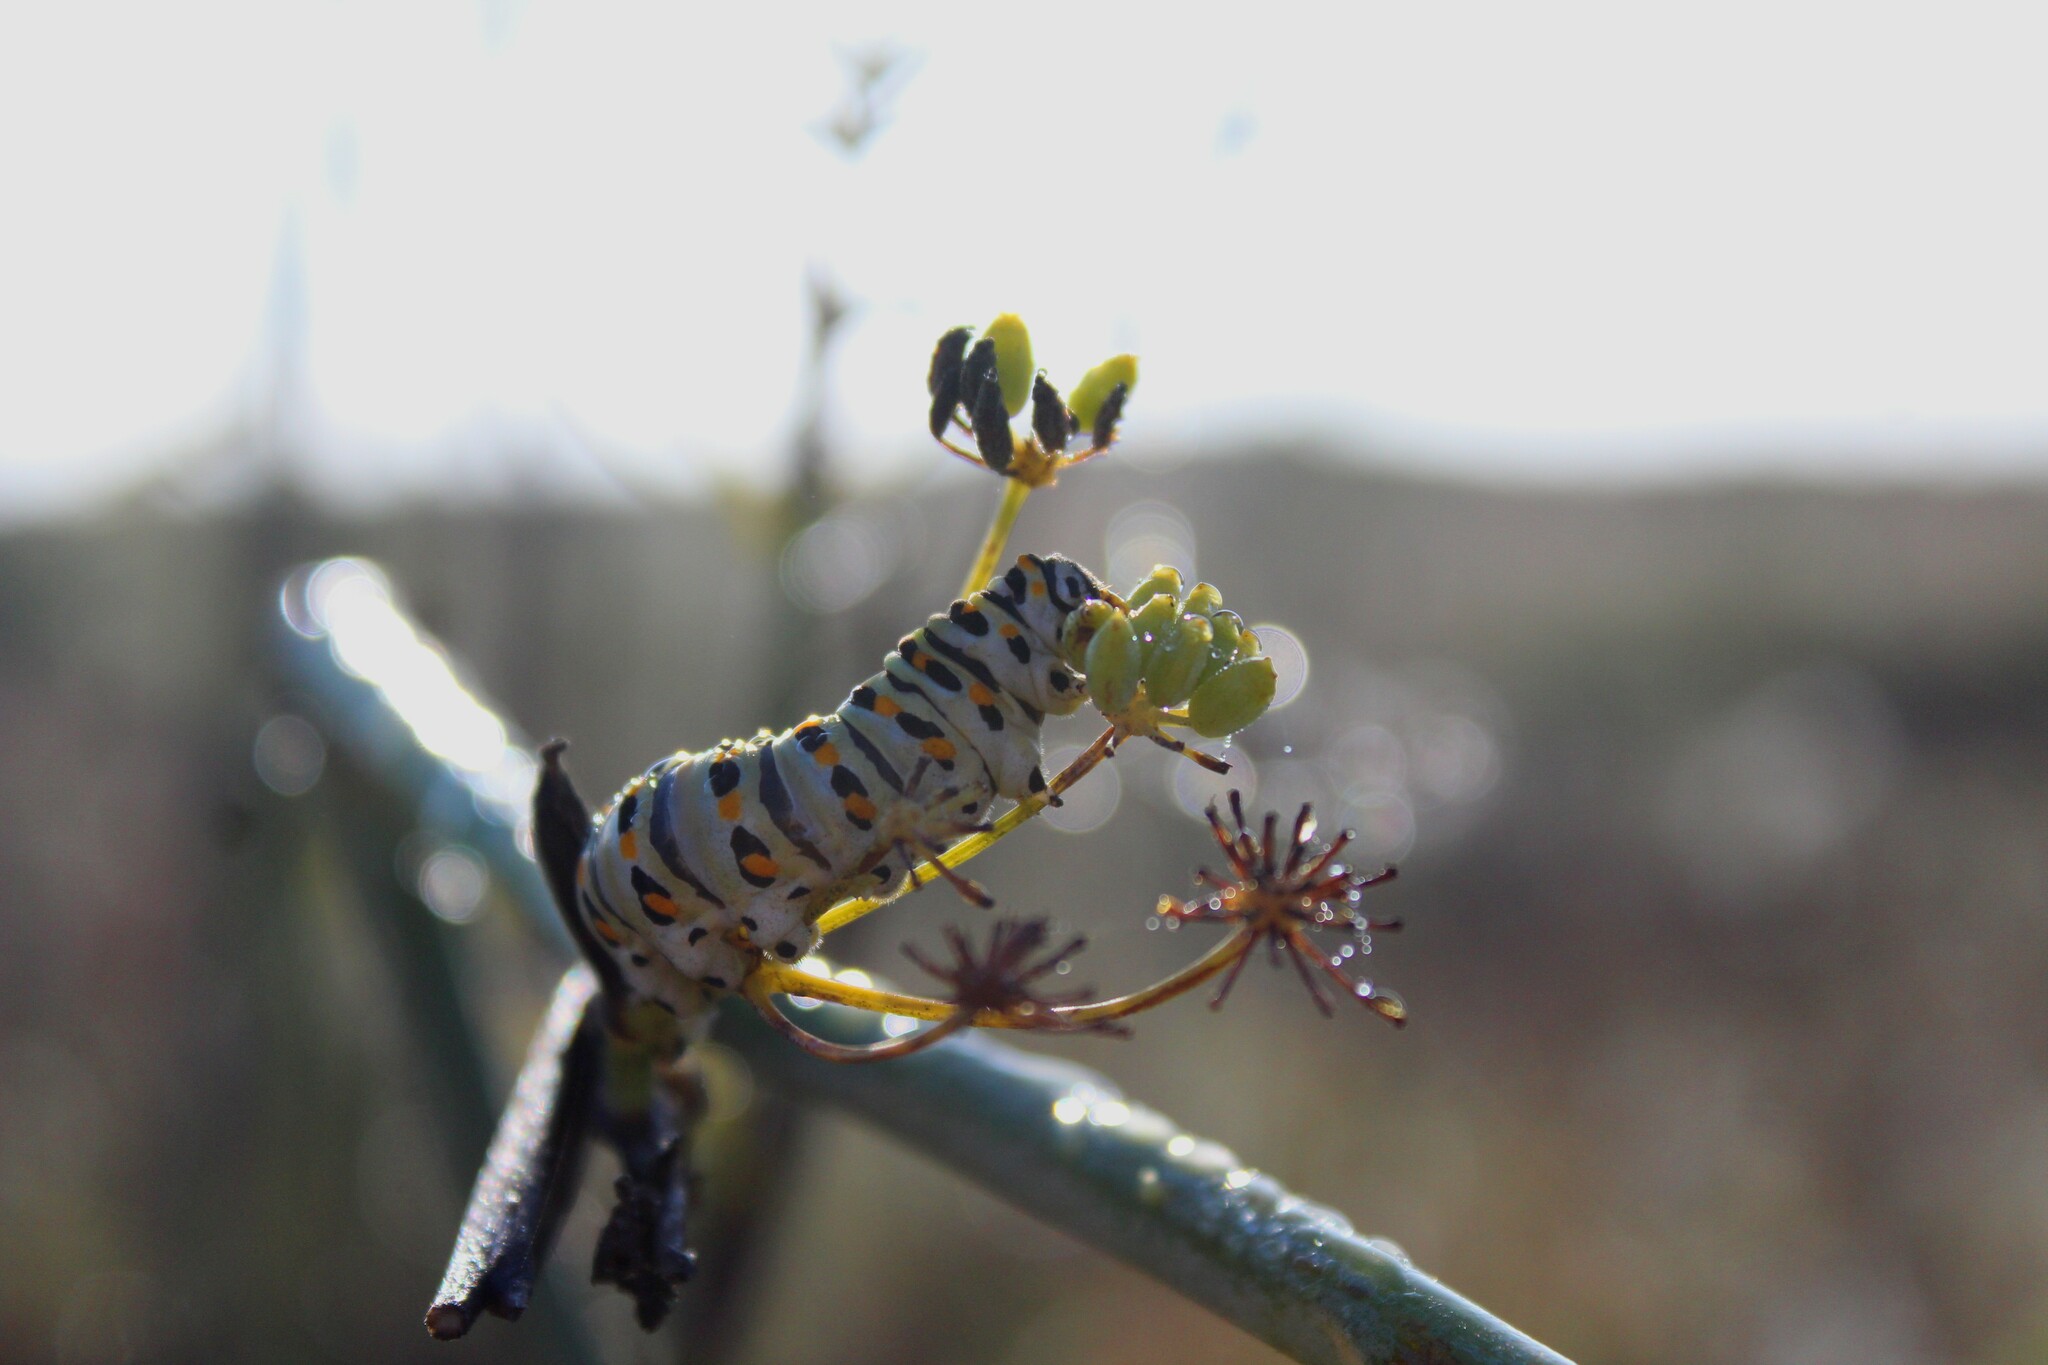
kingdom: Animalia
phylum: Arthropoda
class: Insecta
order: Lepidoptera
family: Papilionidae
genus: Papilio
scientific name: Papilio zelicaon
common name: Anise swallowtail
